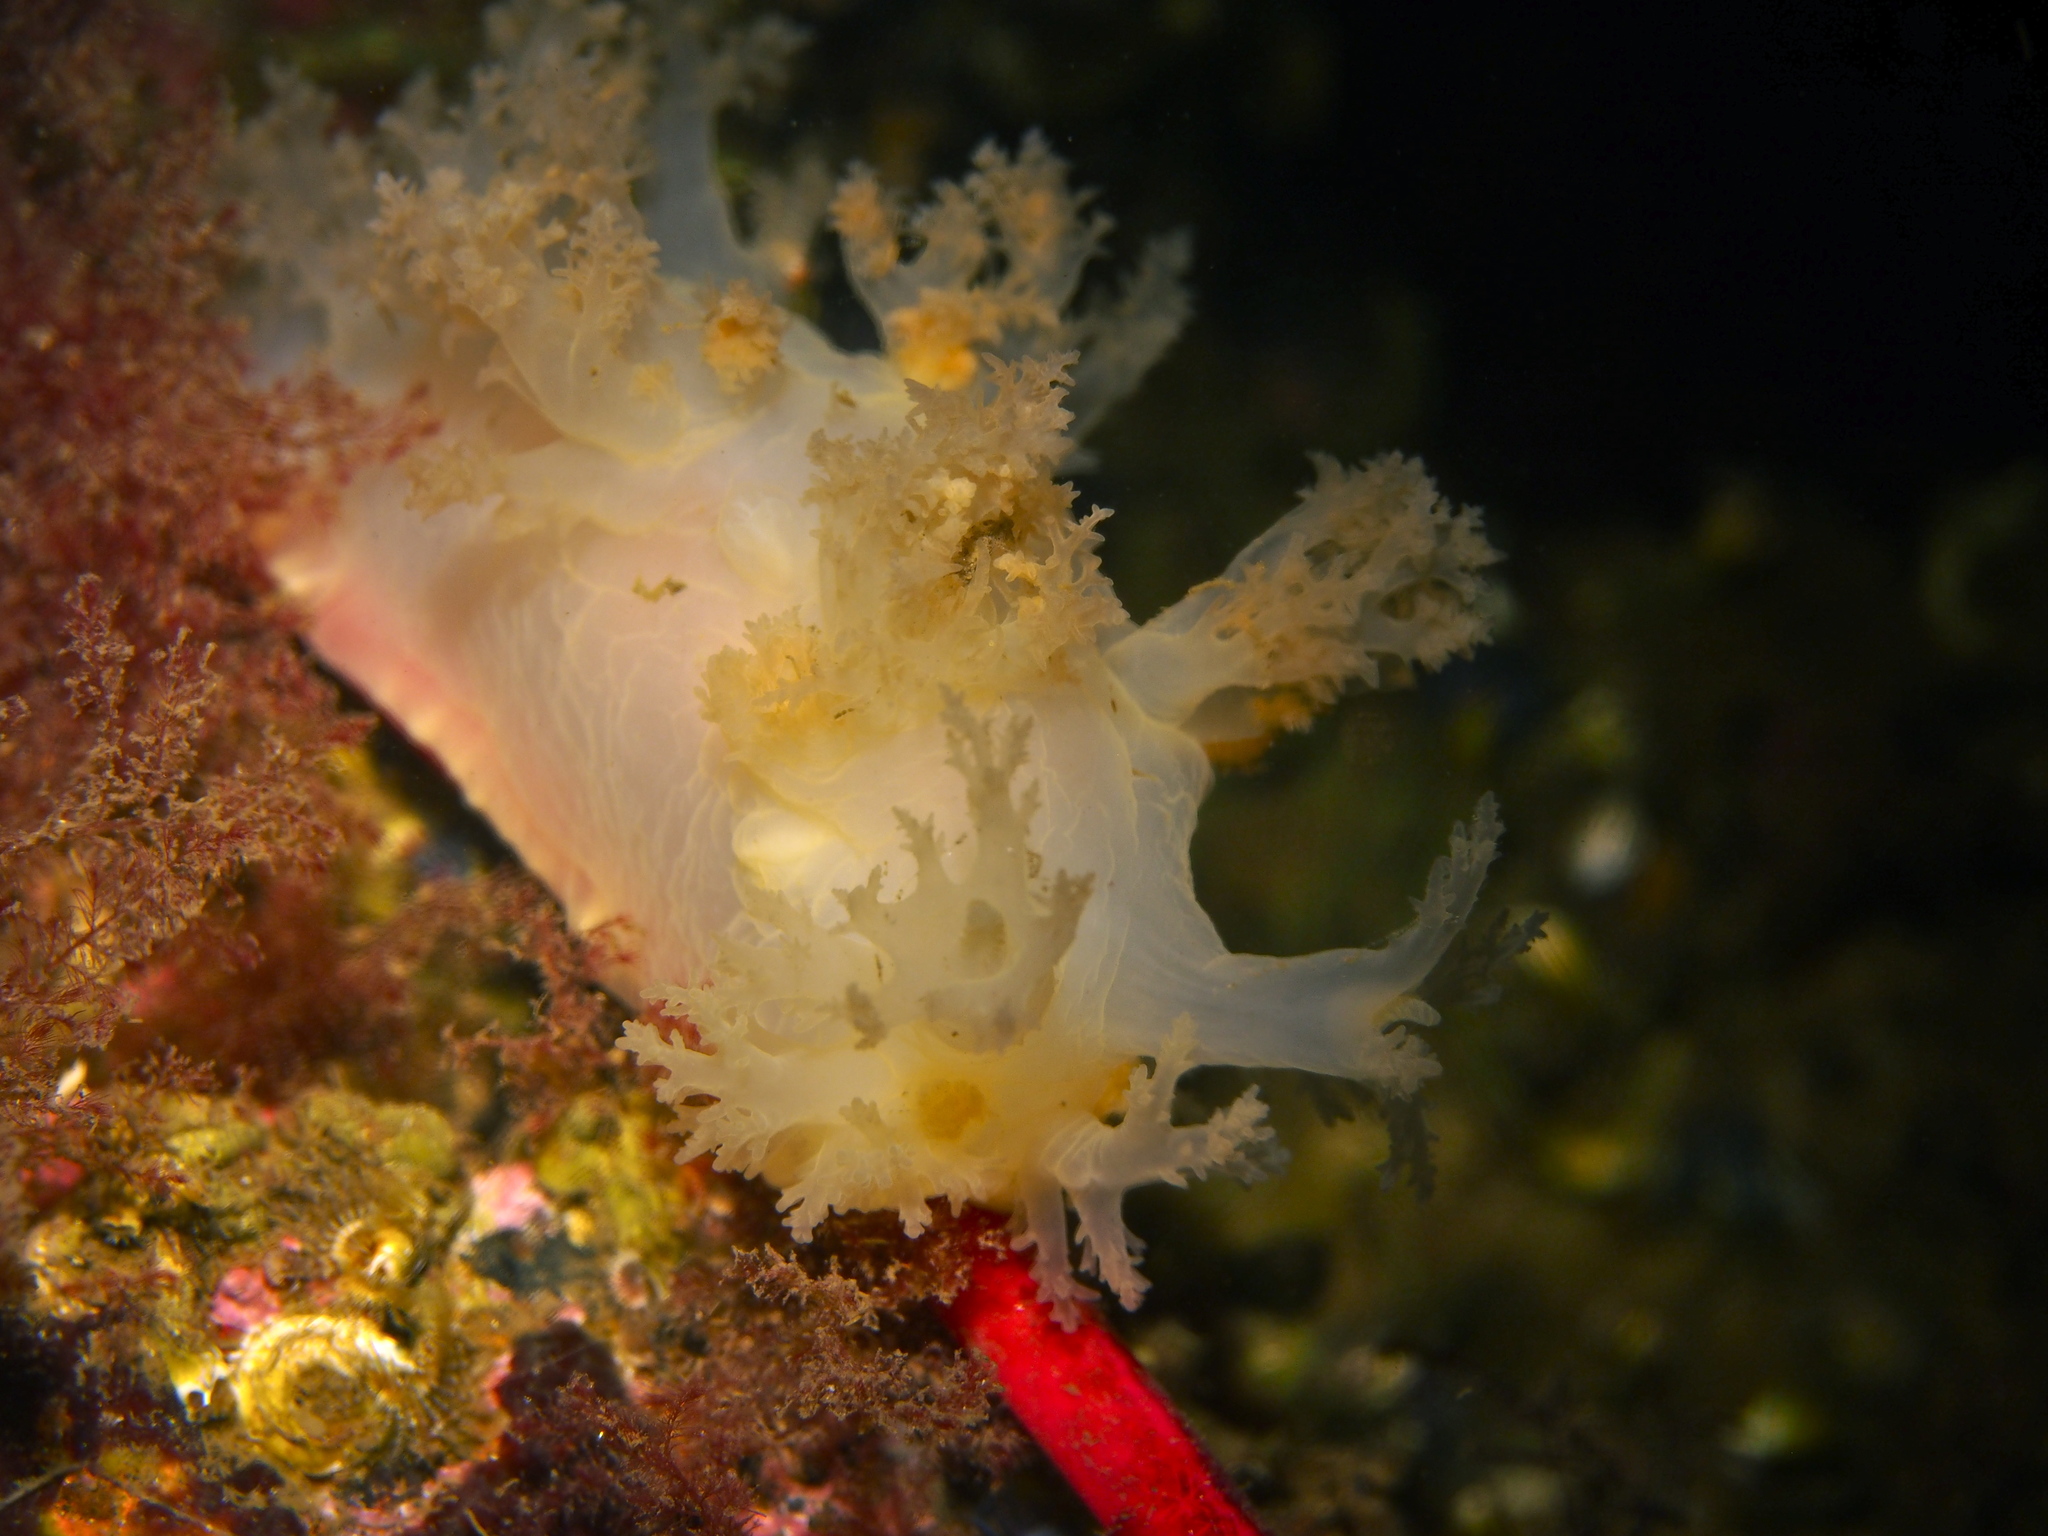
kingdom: Animalia
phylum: Mollusca
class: Gastropoda
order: Nudibranchia
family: Dendronotidae
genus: Dendronotus
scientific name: Dendronotus lacteus
